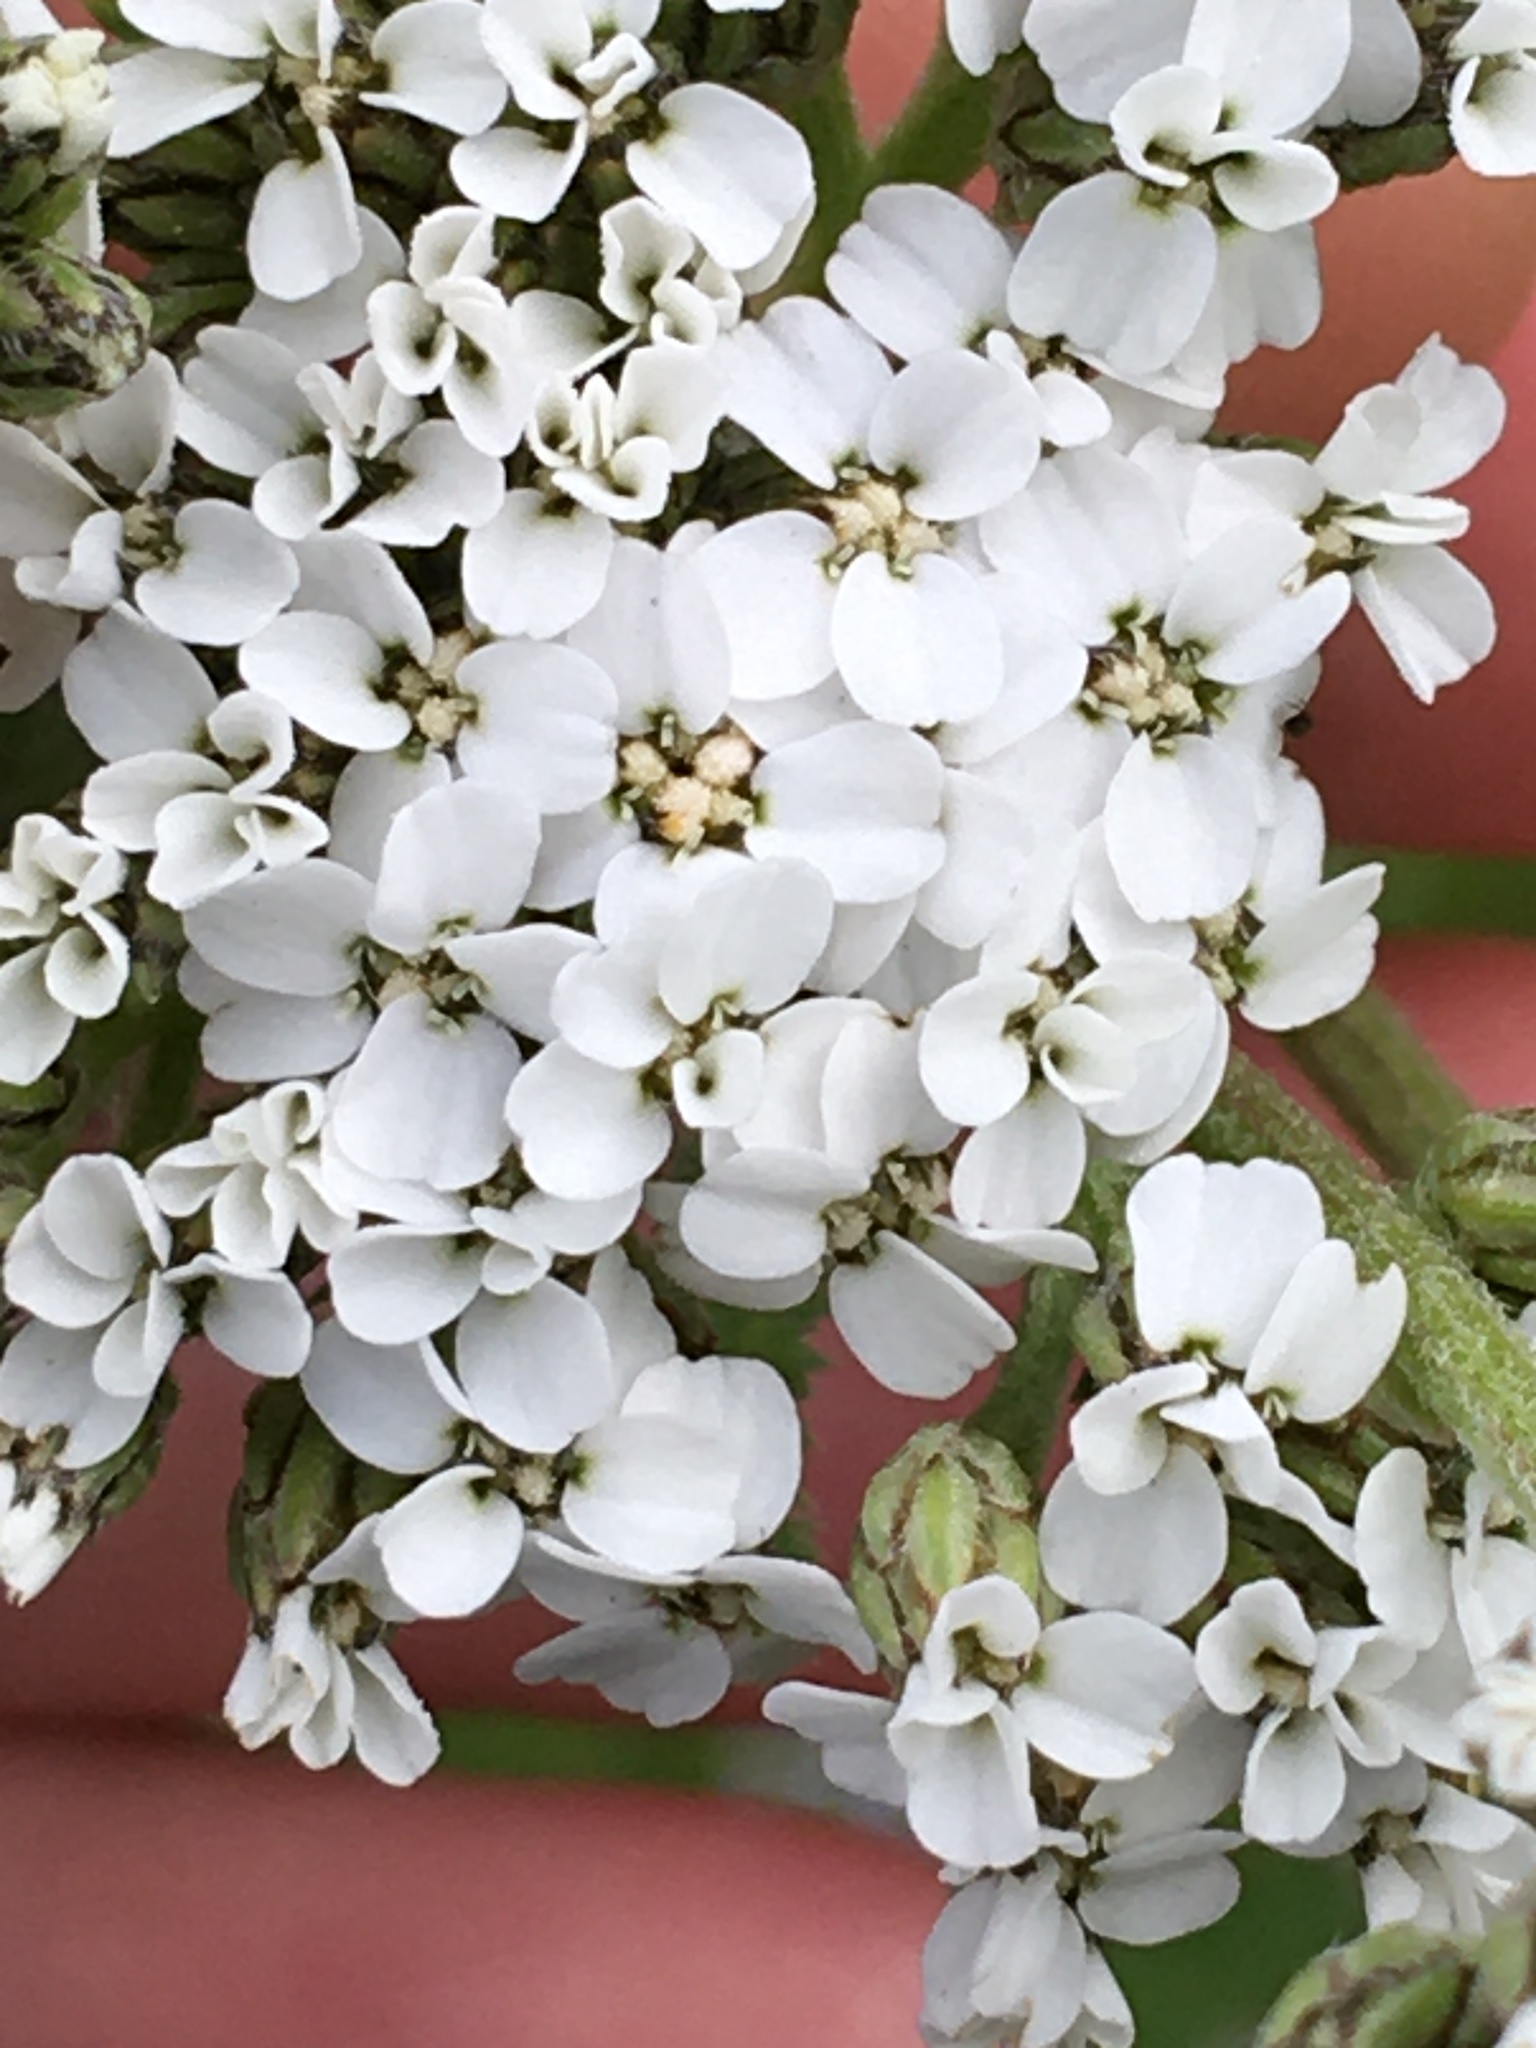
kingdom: Plantae
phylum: Tracheophyta
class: Magnoliopsida
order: Asterales
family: Asteraceae
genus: Achillea
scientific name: Achillea millefolium
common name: Yarrow
